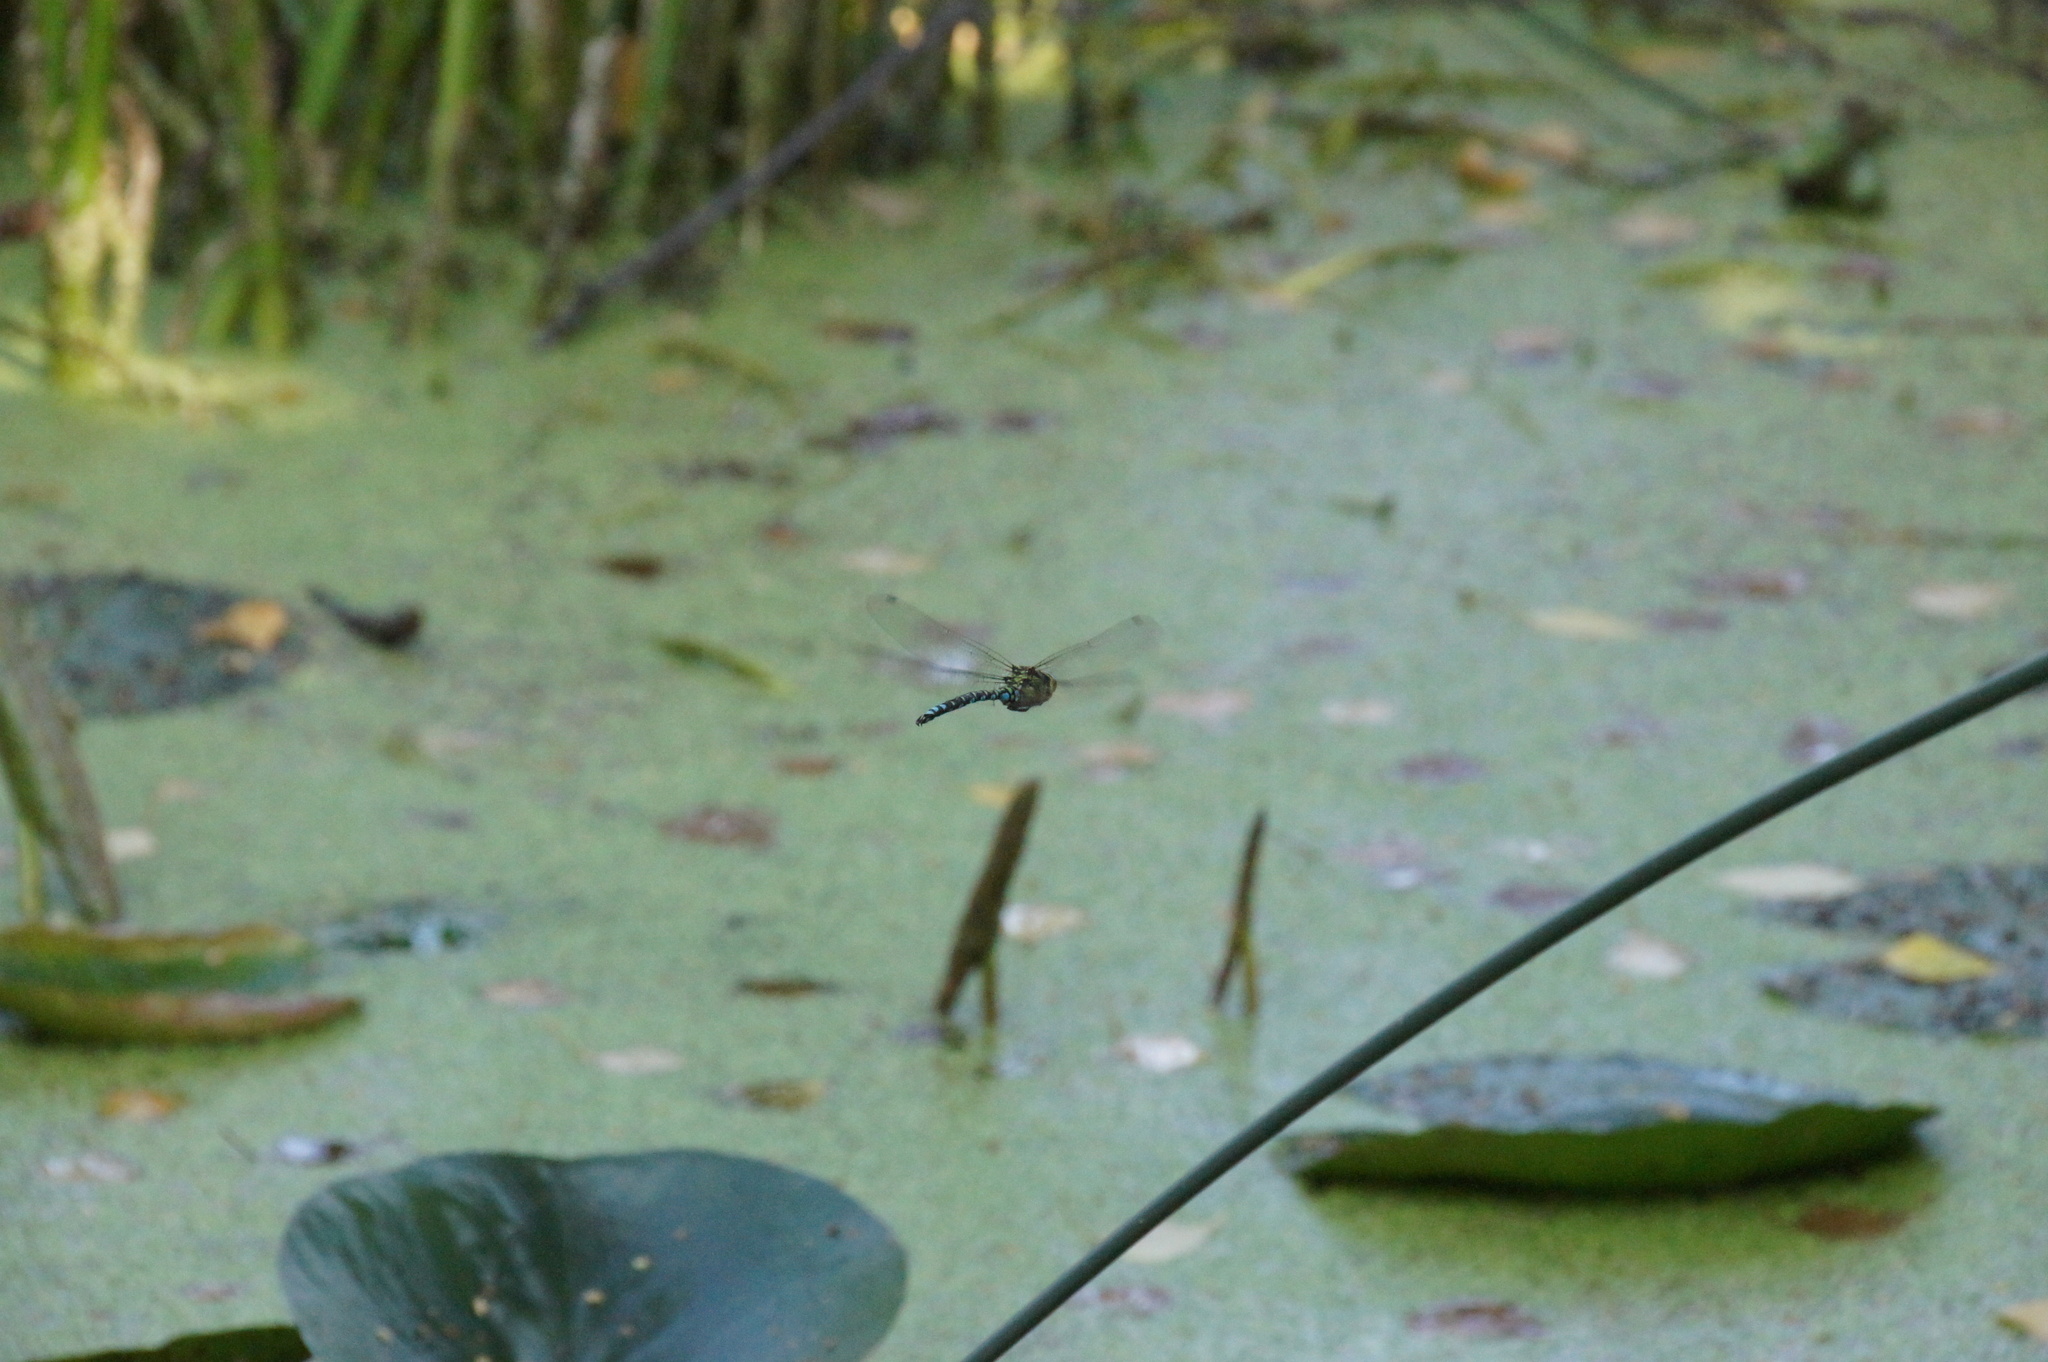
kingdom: Animalia
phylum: Arthropoda
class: Insecta
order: Odonata
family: Aeshnidae
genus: Aeshna
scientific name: Aeshna cyanea
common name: Southern hawker
